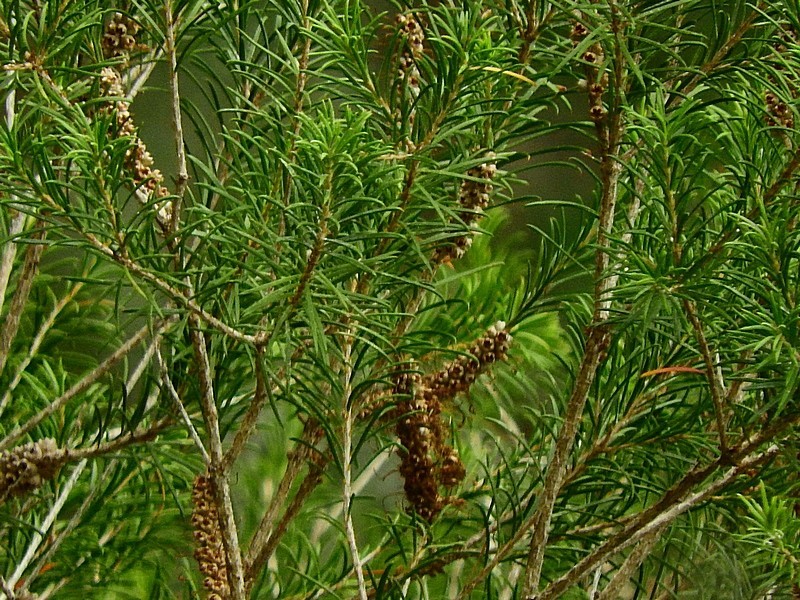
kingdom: Plantae
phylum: Tracheophyta
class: Magnoliopsida
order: Myrtales
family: Myrtaceae
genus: Melaleuca
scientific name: Melaleuca armillaris
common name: Bracelet honey myrtle
